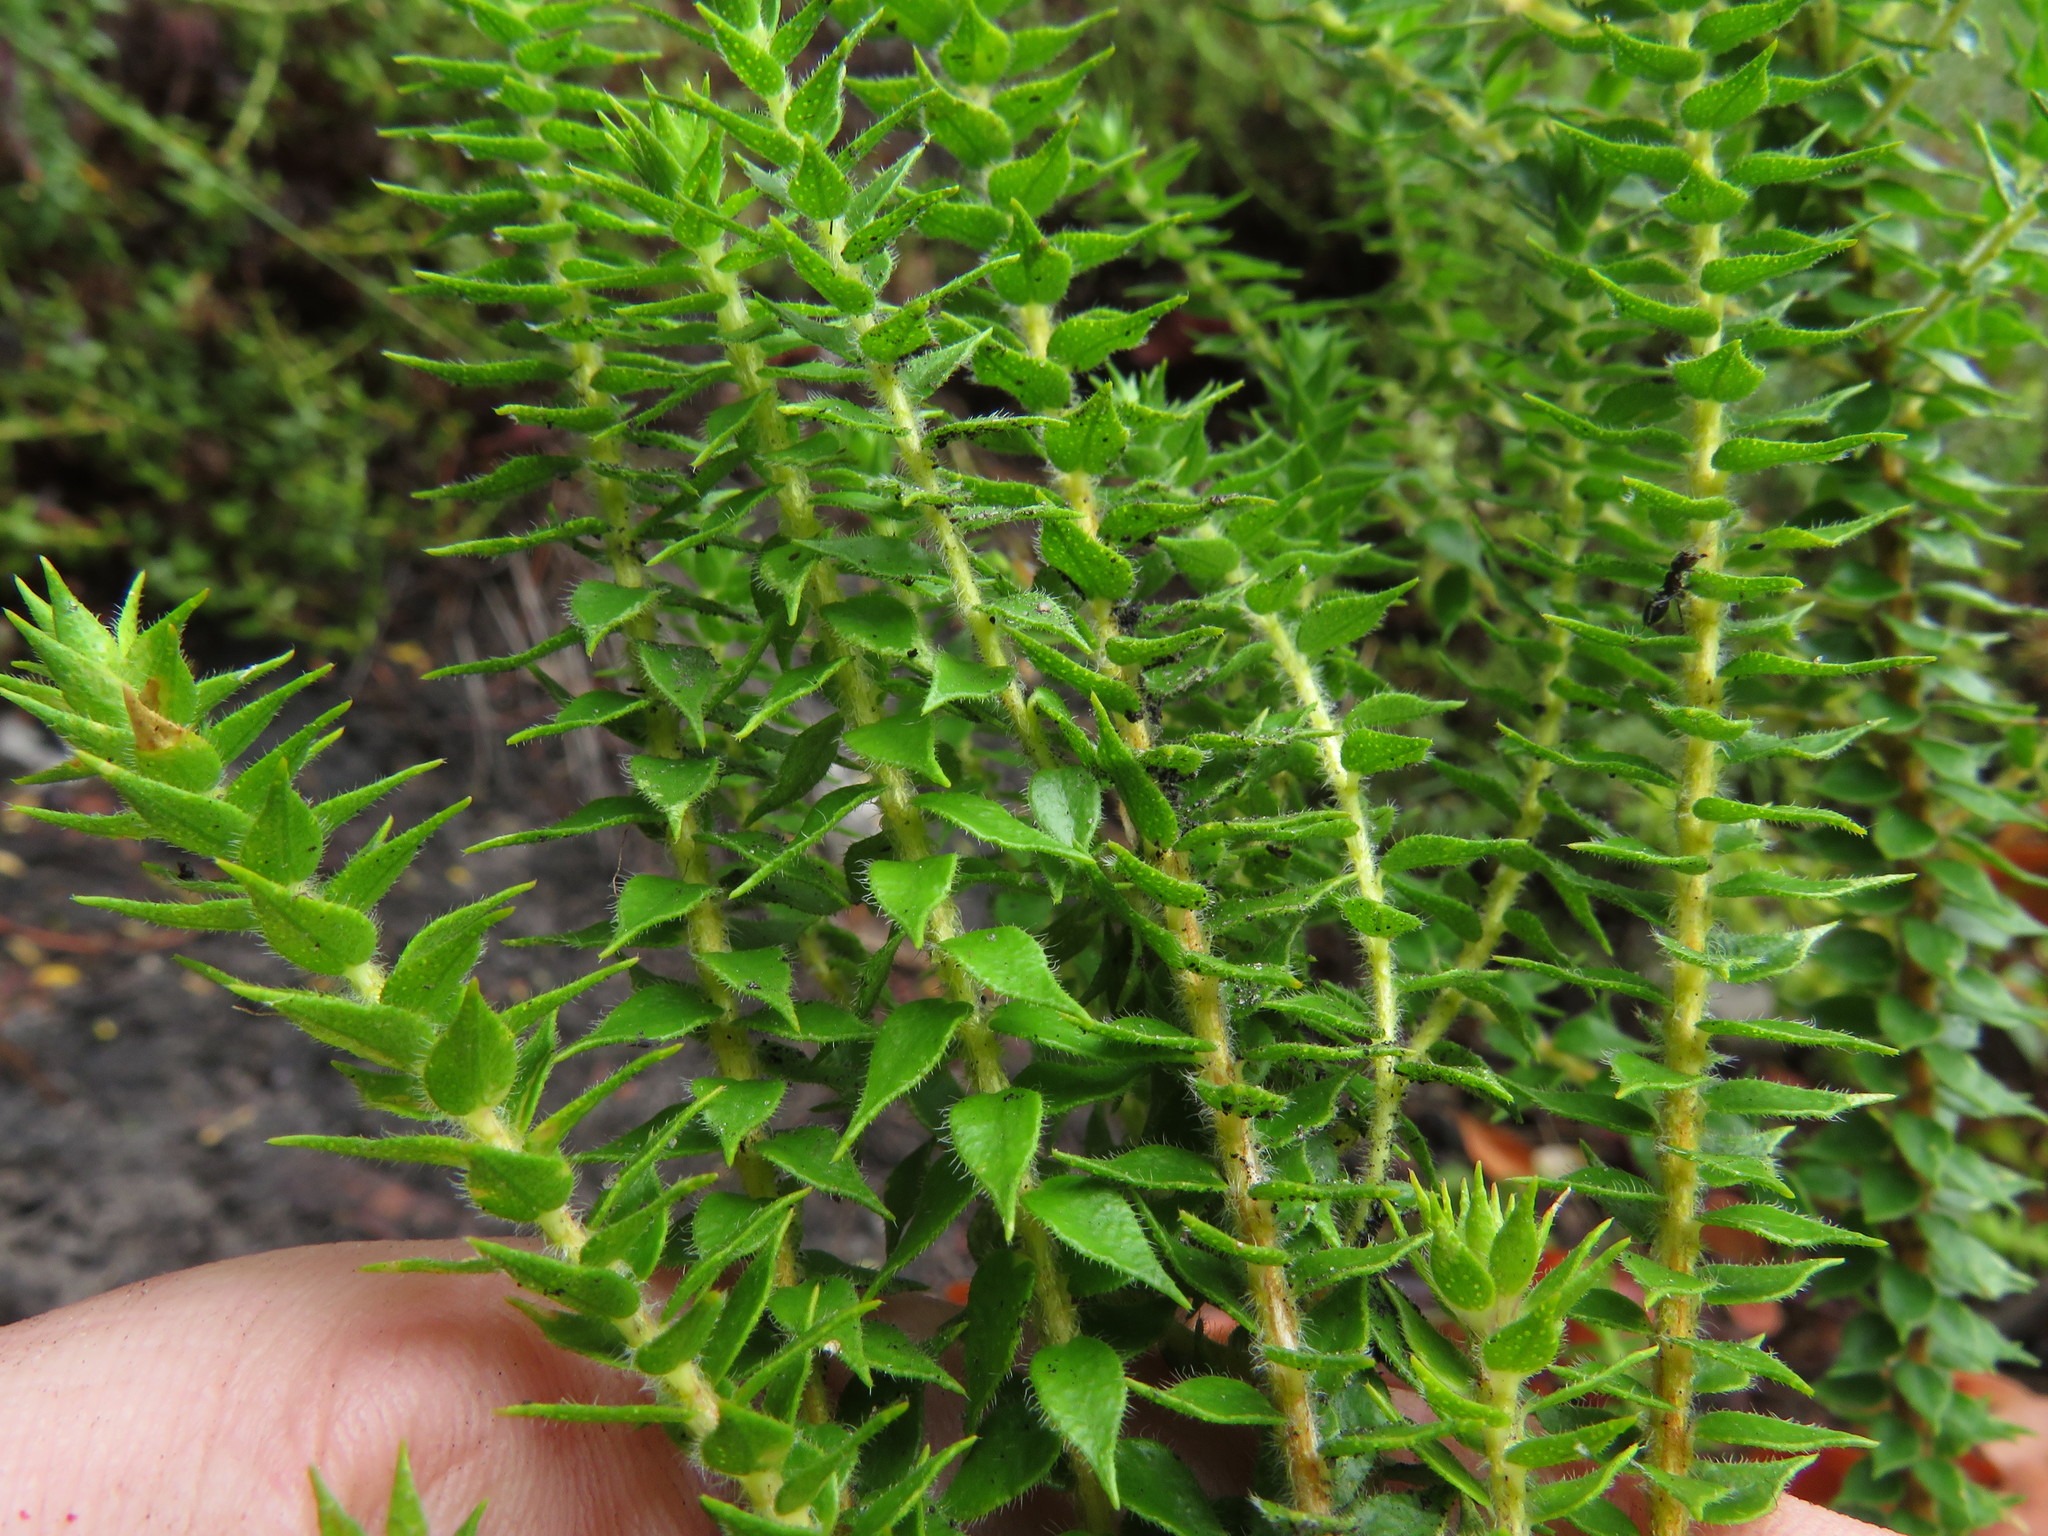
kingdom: Plantae
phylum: Tracheophyta
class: Magnoliopsida
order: Sapindales
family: Rutaceae
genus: Agathosma
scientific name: Agathosma imbricata
